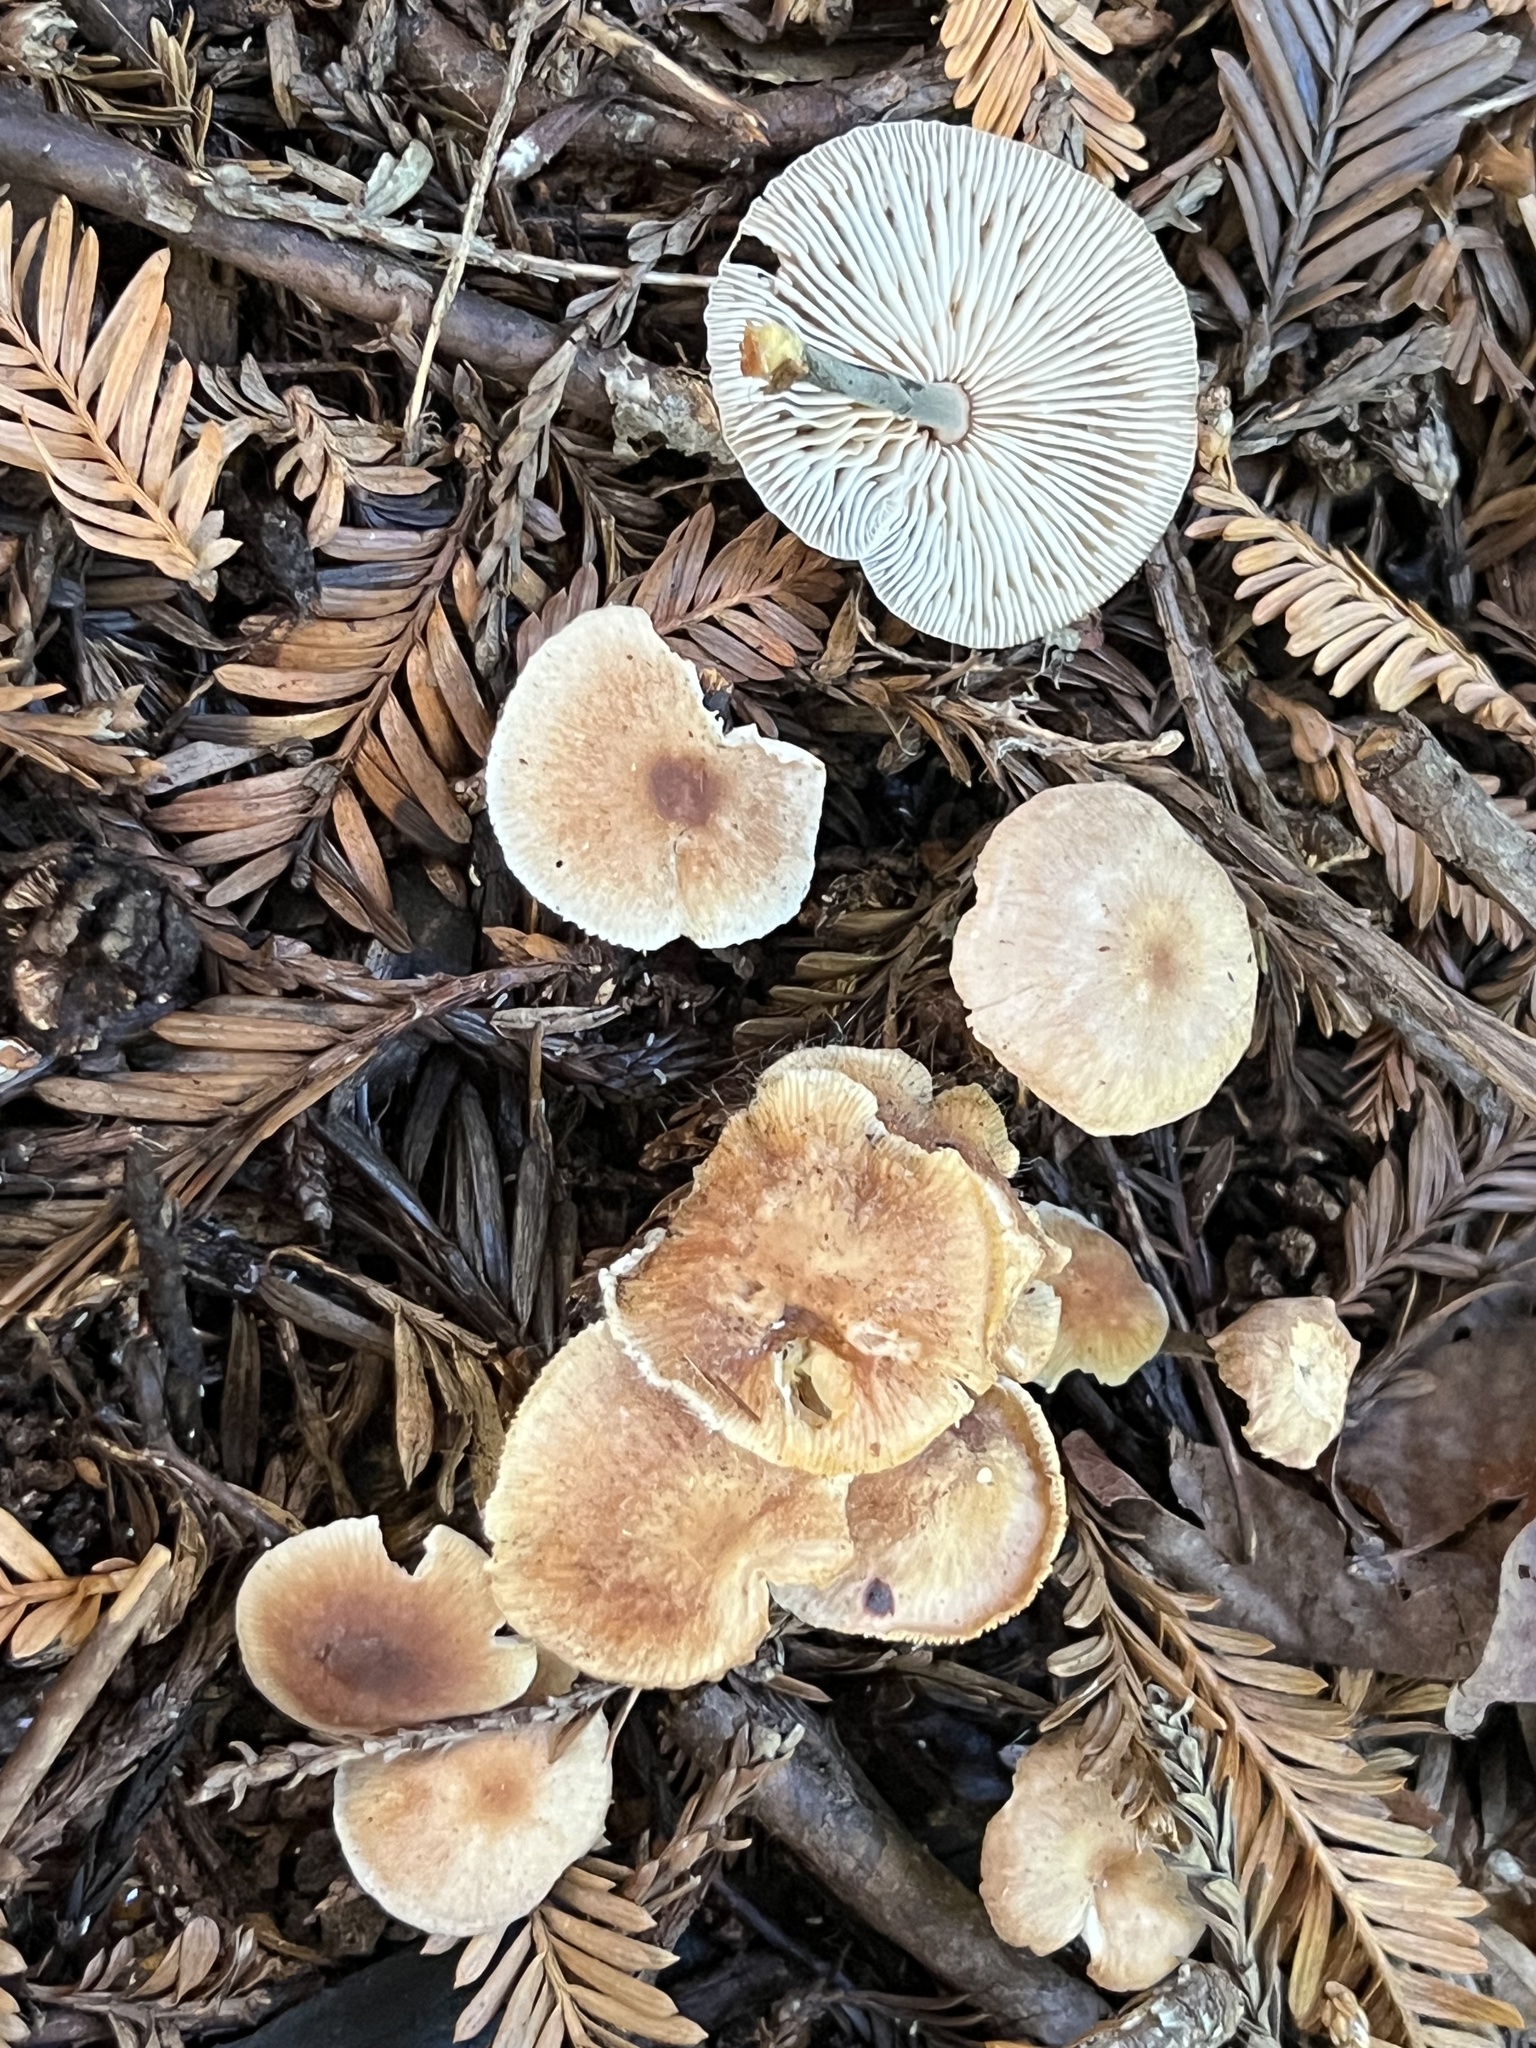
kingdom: Fungi
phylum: Basidiomycota
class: Agaricomycetes
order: Agaricales
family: Omphalotaceae
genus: Gymnopus
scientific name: Gymnopus brassicolens
